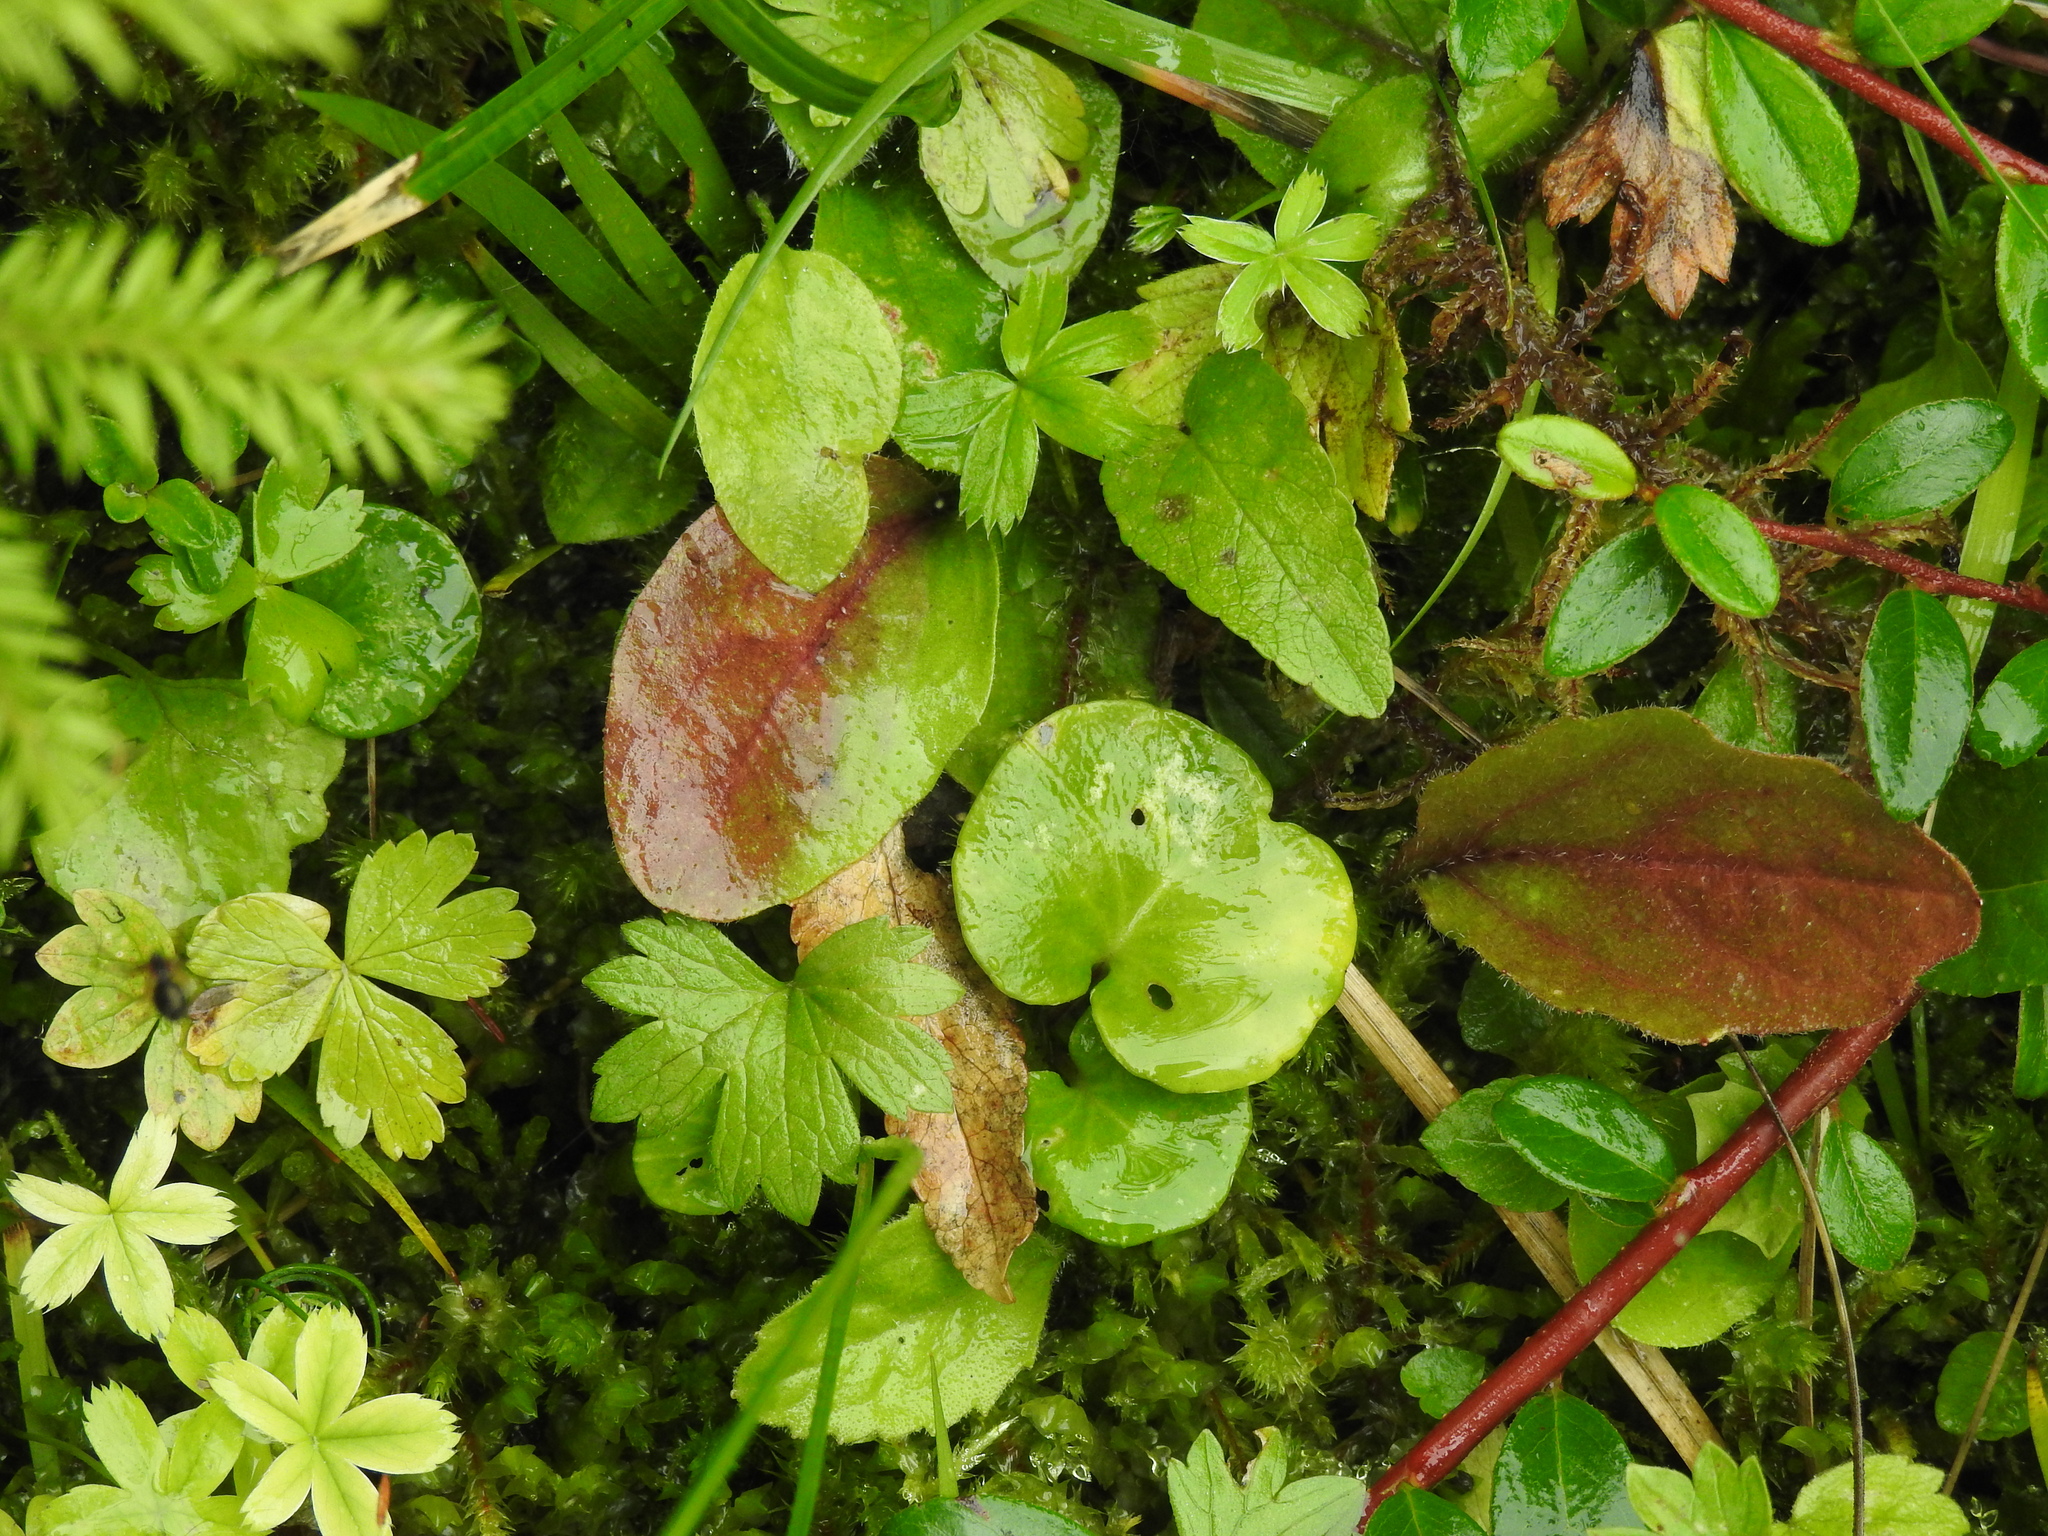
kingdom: Plantae
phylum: Tracheophyta
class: Magnoliopsida
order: Ericales
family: Primulaceae
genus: Soldanella
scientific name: Soldanella alpina
